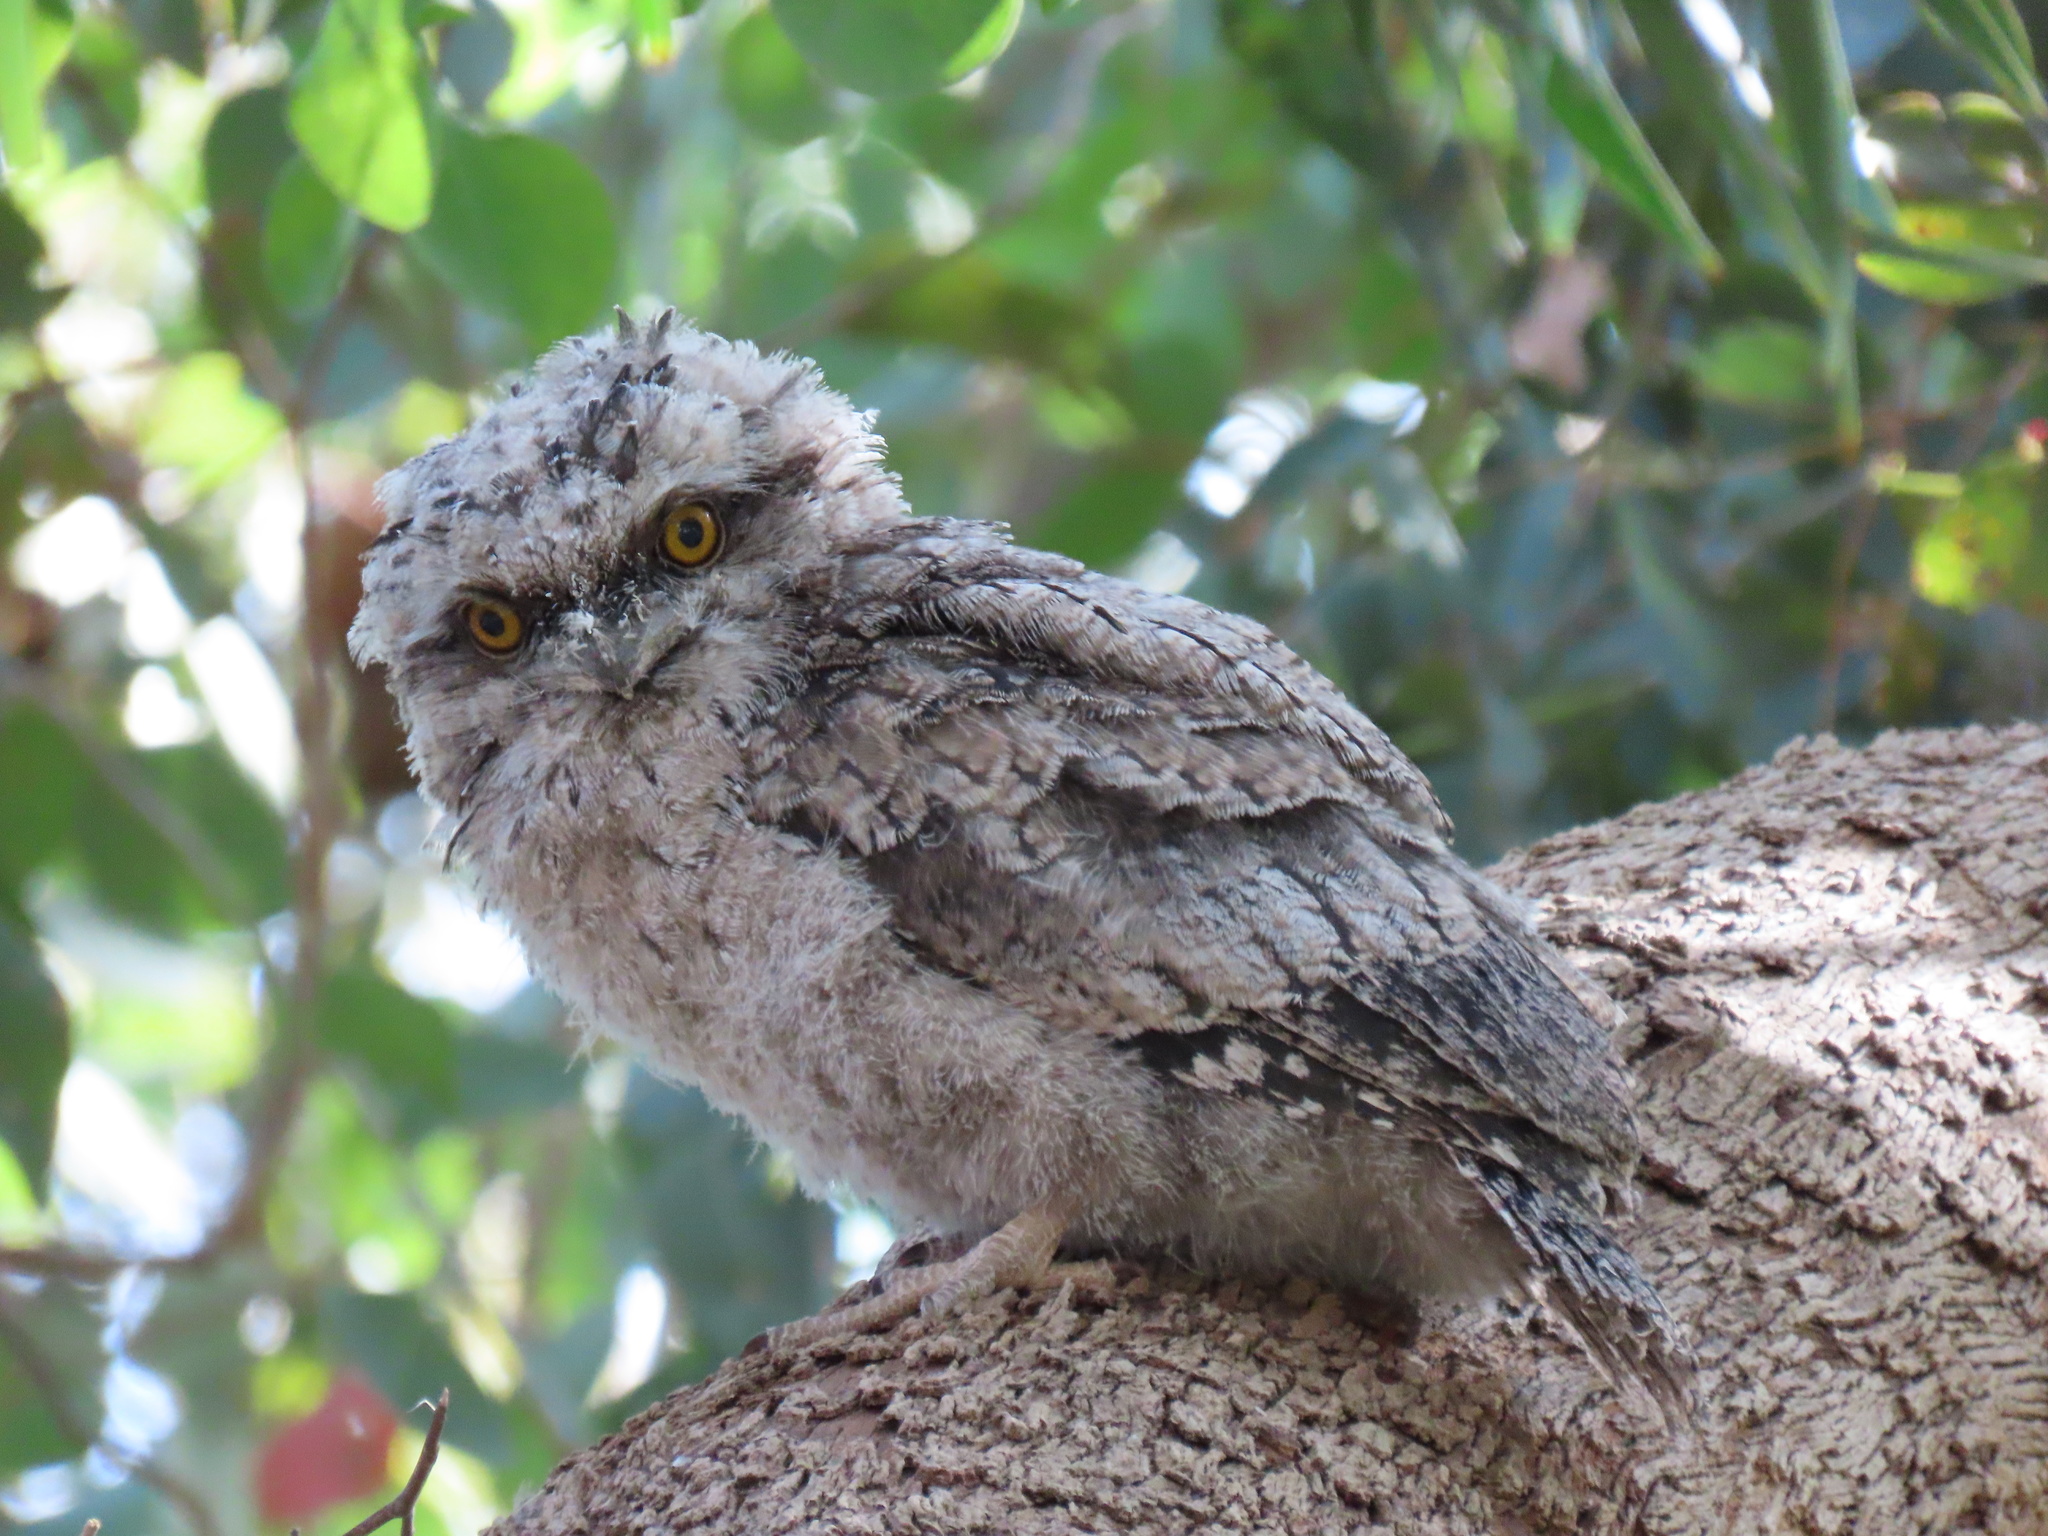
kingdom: Animalia
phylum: Chordata
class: Aves
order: Caprimulgiformes
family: Podargidae
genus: Podargus
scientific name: Podargus strigoides
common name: Tawny frogmouth
